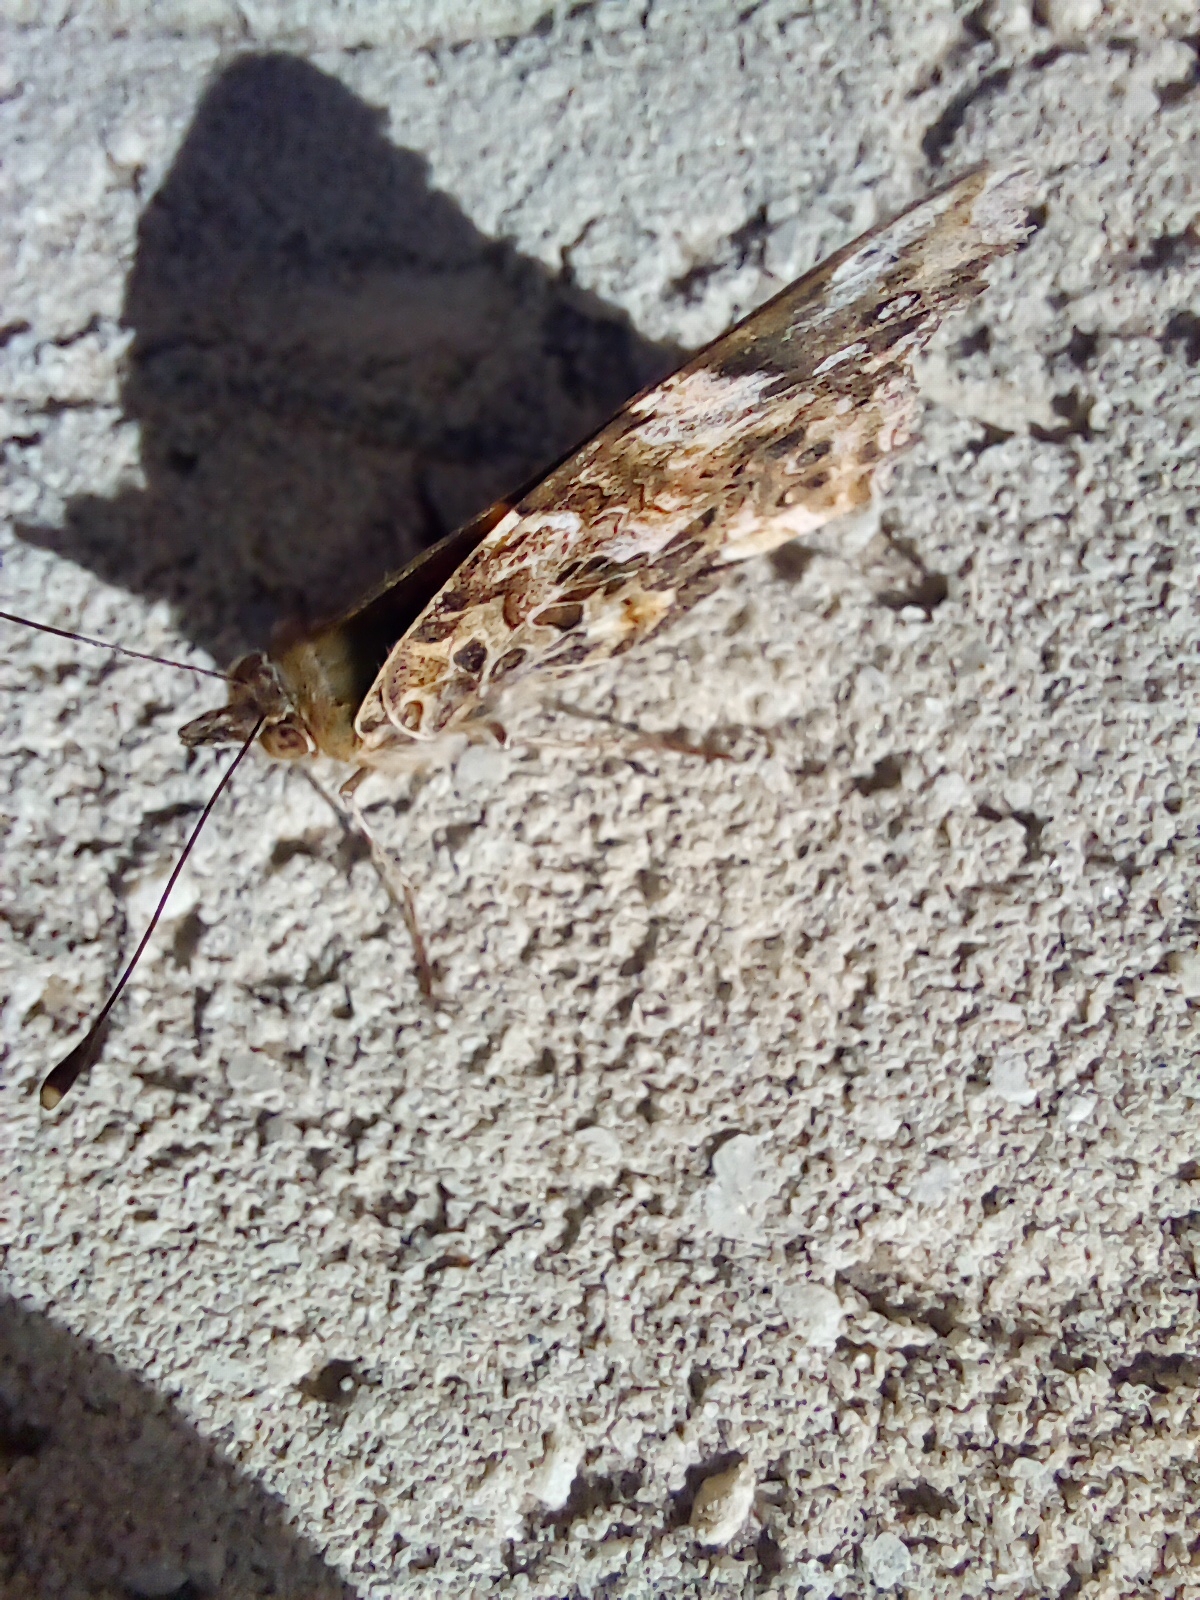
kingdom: Animalia
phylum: Arthropoda
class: Insecta
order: Lepidoptera
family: Nymphalidae
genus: Vanessa
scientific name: Vanessa carye
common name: Subtropical lady
